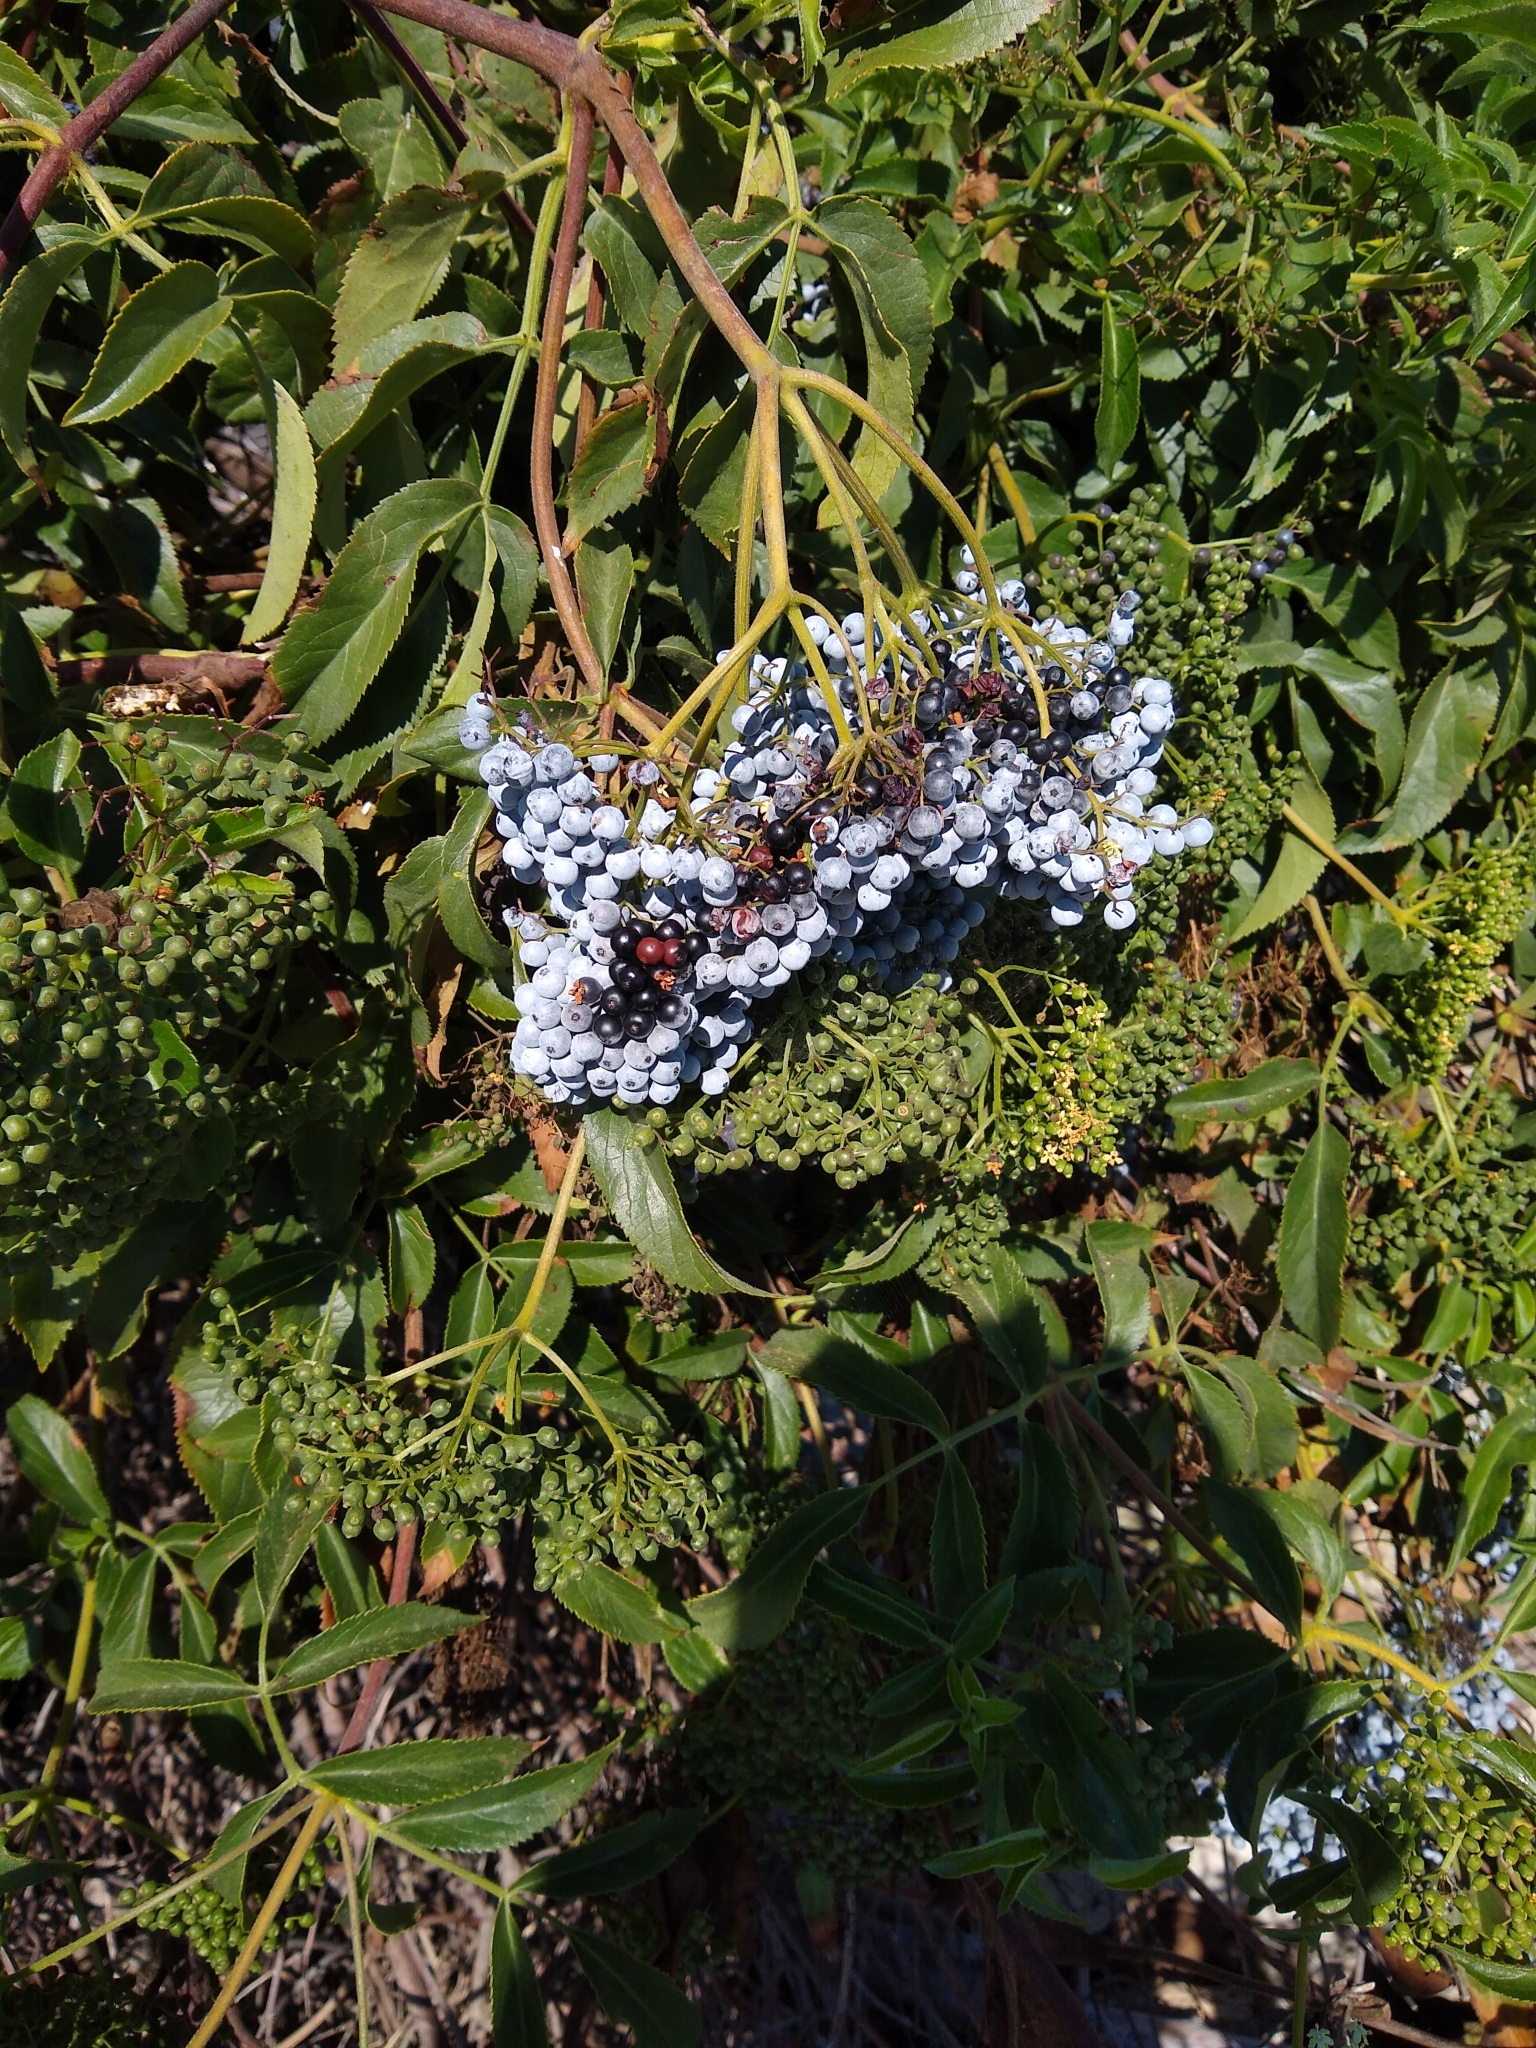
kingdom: Plantae
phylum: Tracheophyta
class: Magnoliopsida
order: Dipsacales
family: Viburnaceae
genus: Sambucus
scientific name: Sambucus cerulea
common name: Blue elder
